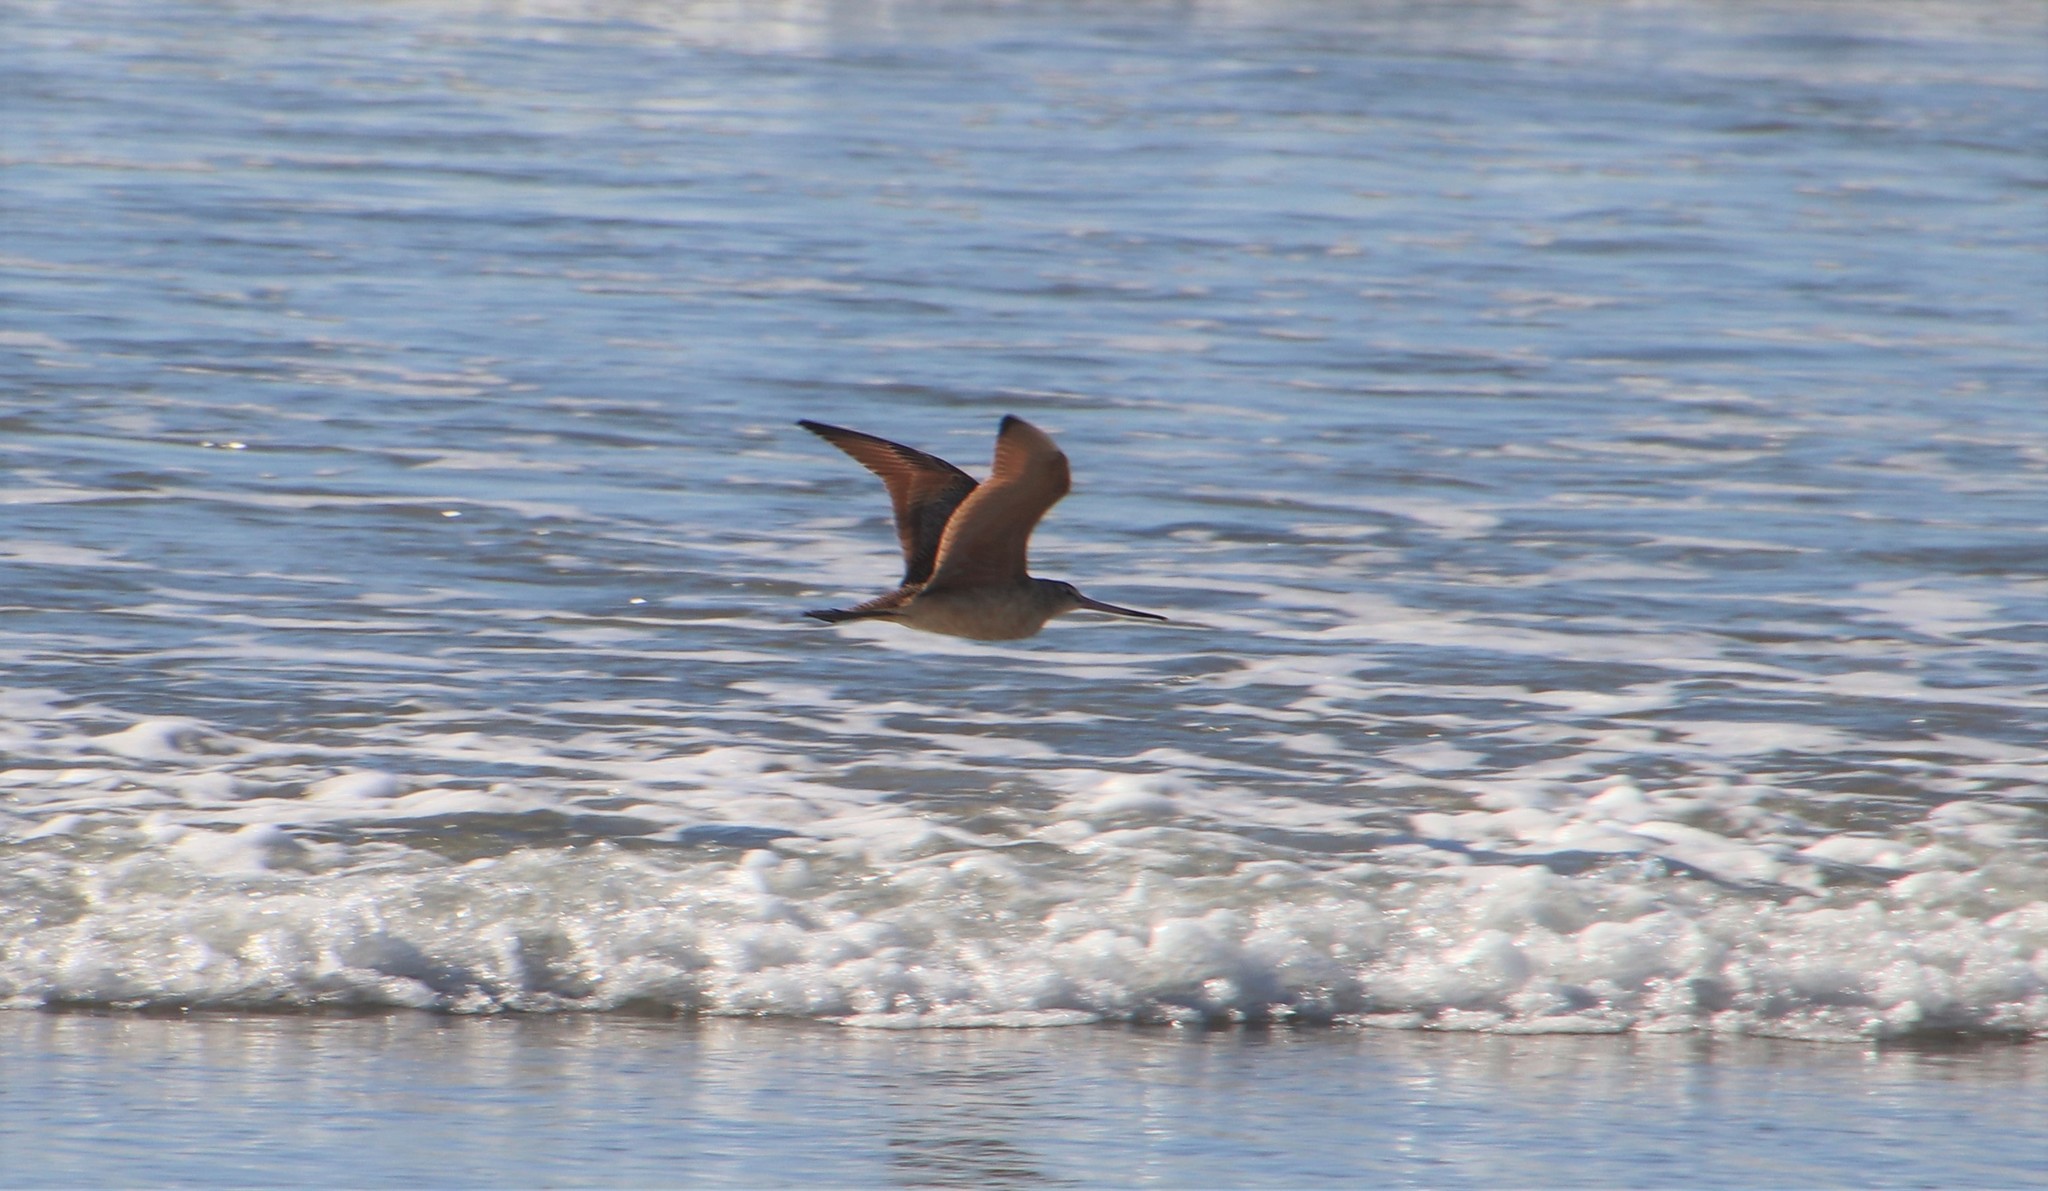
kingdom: Animalia
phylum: Chordata
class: Aves
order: Charadriiformes
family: Scolopacidae
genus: Limosa
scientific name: Limosa fedoa
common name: Marbled godwit
